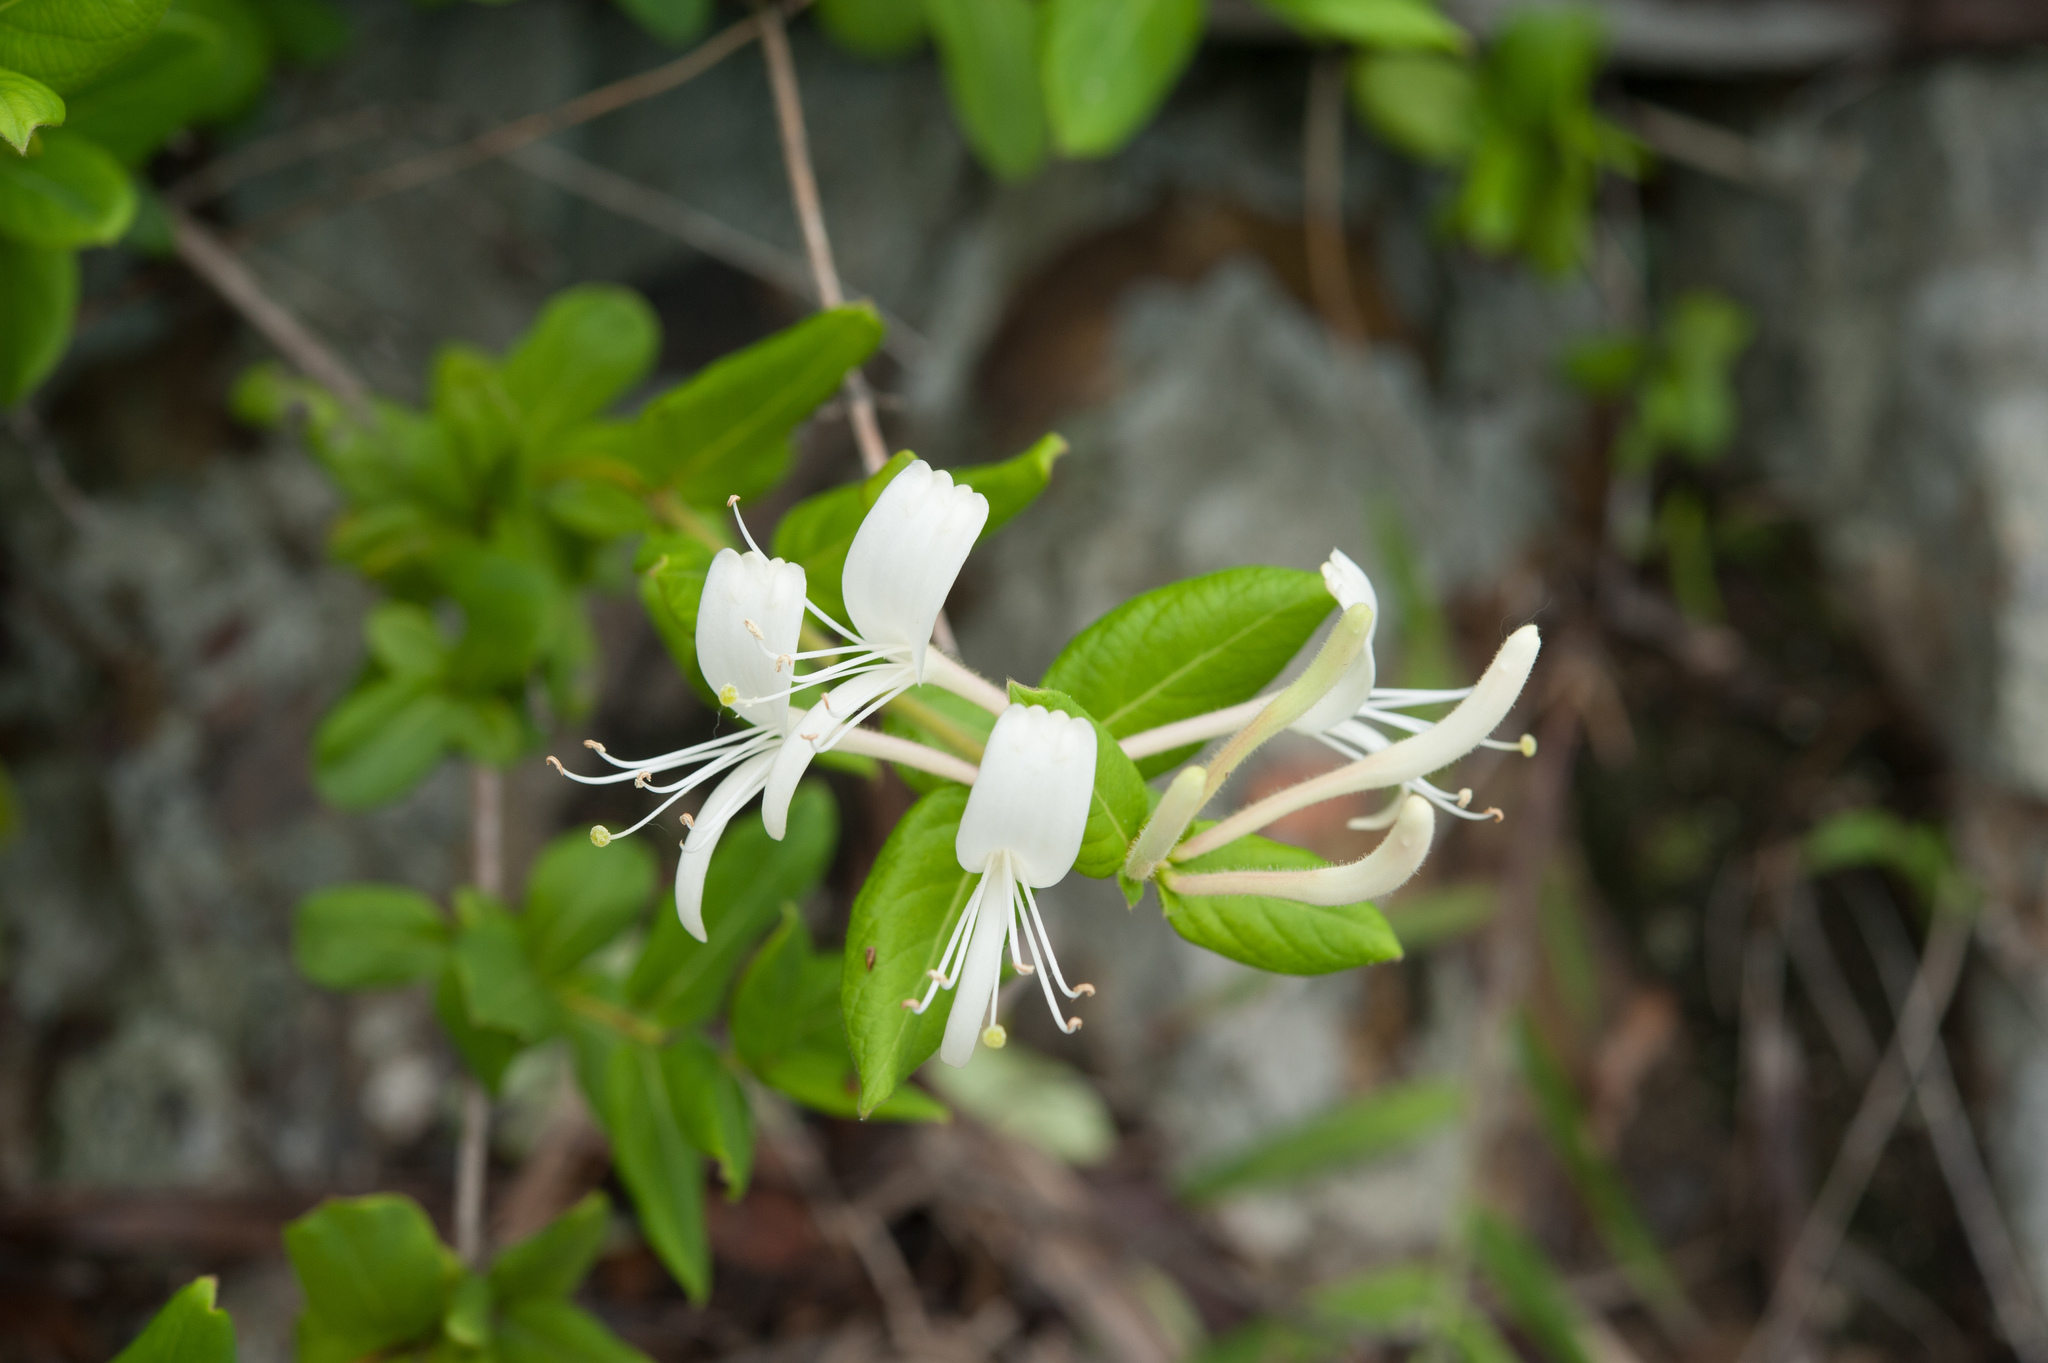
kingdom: Plantae
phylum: Tracheophyta
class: Magnoliopsida
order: Dipsacales
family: Caprifoliaceae
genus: Lonicera
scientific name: Lonicera japonica
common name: Japanese honeysuckle
